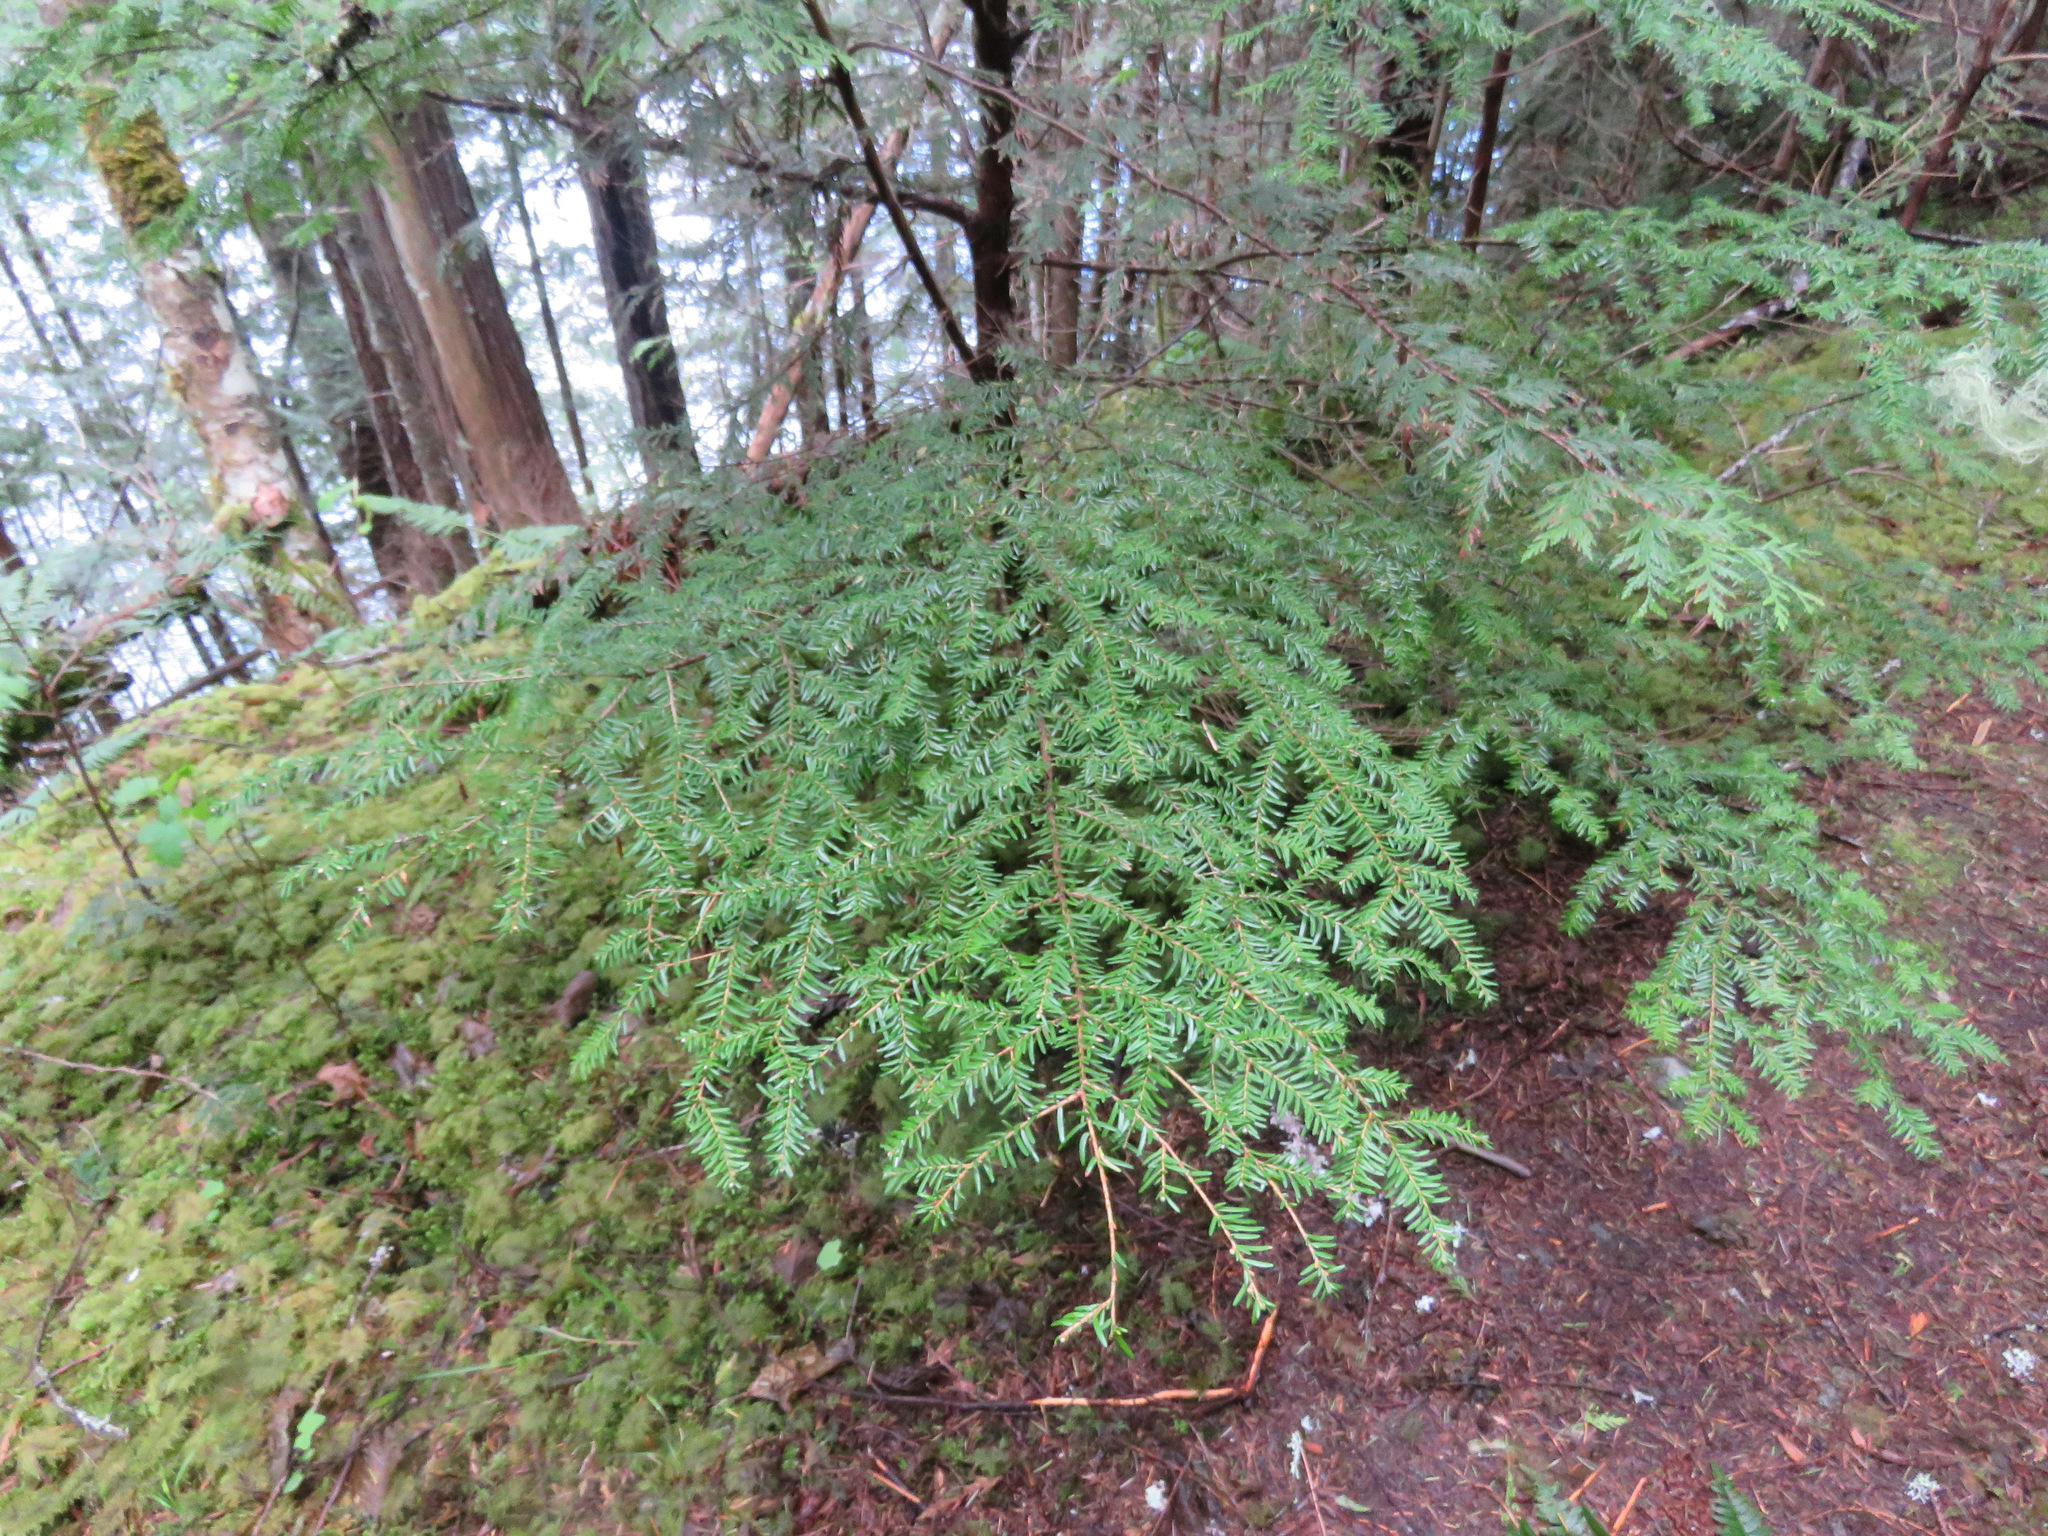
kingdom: Plantae
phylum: Tracheophyta
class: Pinopsida
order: Pinales
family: Pinaceae
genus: Tsuga
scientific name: Tsuga heterophylla
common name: Western hemlock
